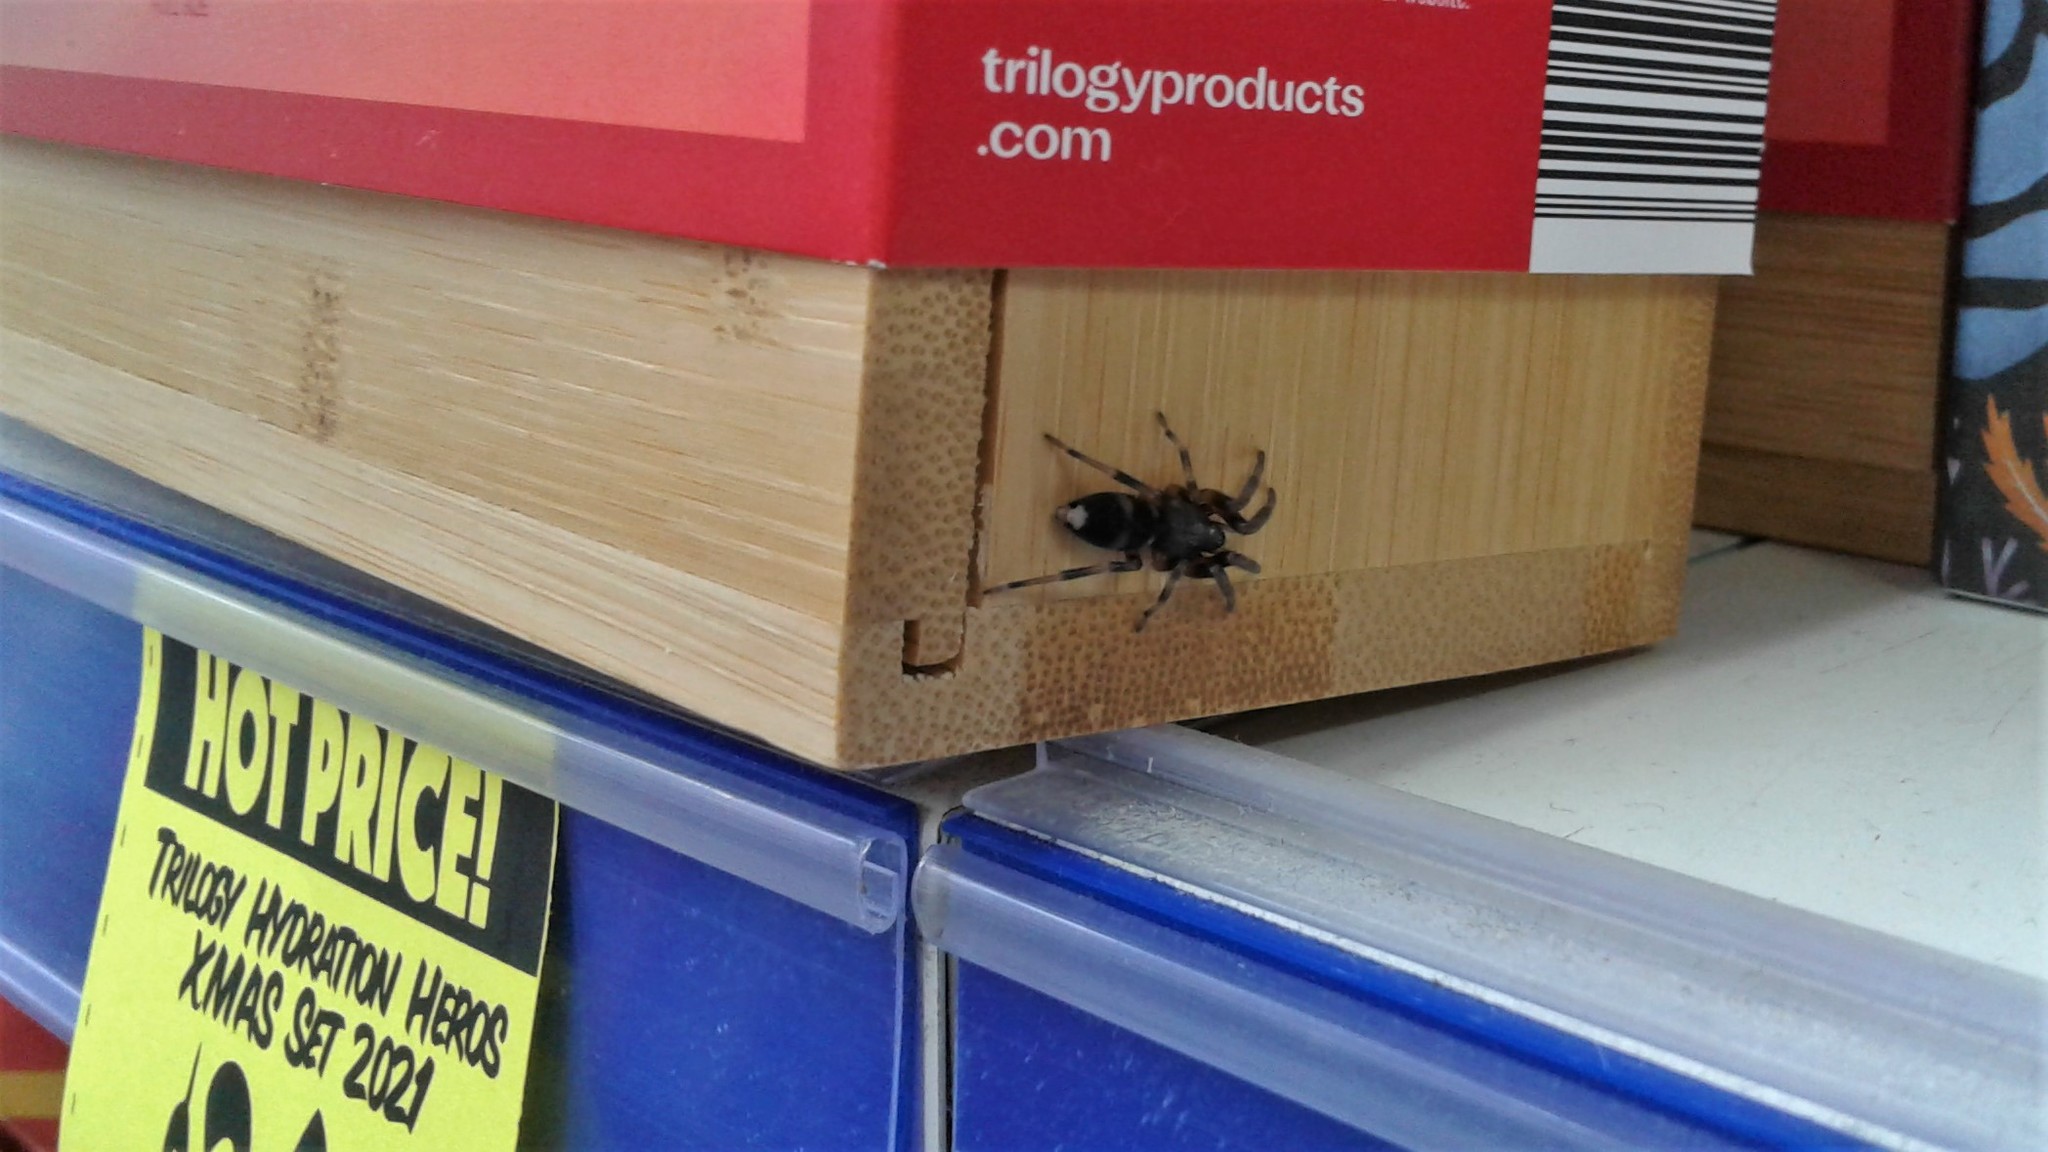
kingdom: Animalia
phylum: Arthropoda
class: Arachnida
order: Araneae
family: Lamponidae
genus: Lampona
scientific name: Lampona murina
